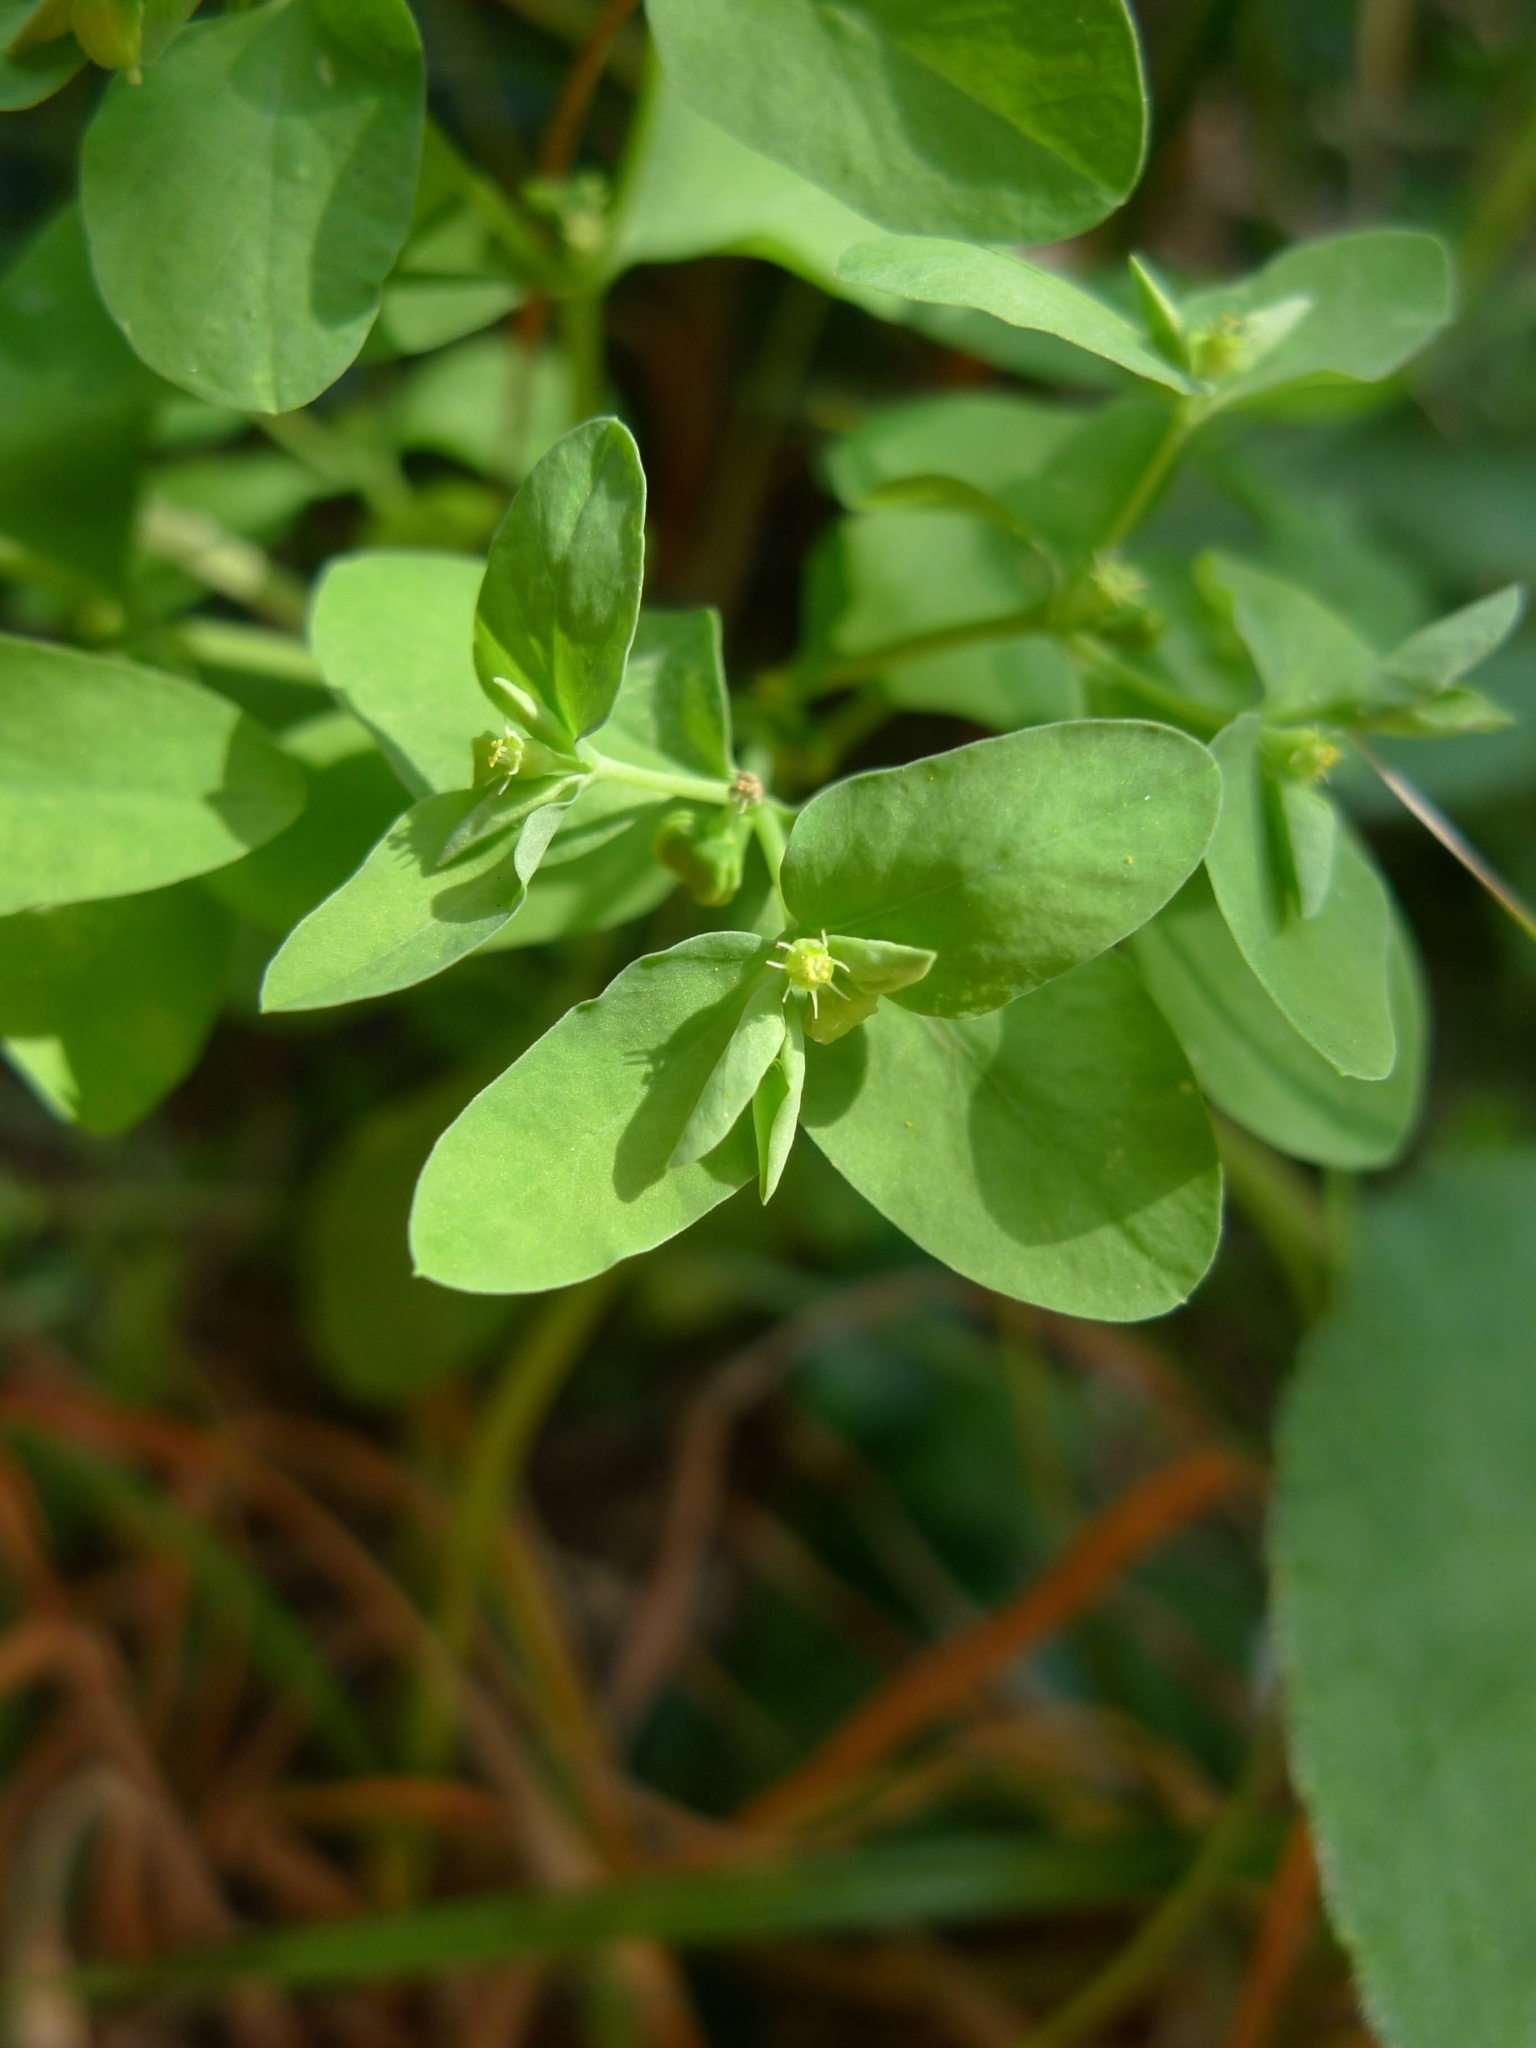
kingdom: Plantae
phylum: Tracheophyta
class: Magnoliopsida
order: Malpighiales
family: Euphorbiaceae
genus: Euphorbia
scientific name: Euphorbia peplus
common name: Petty spurge
